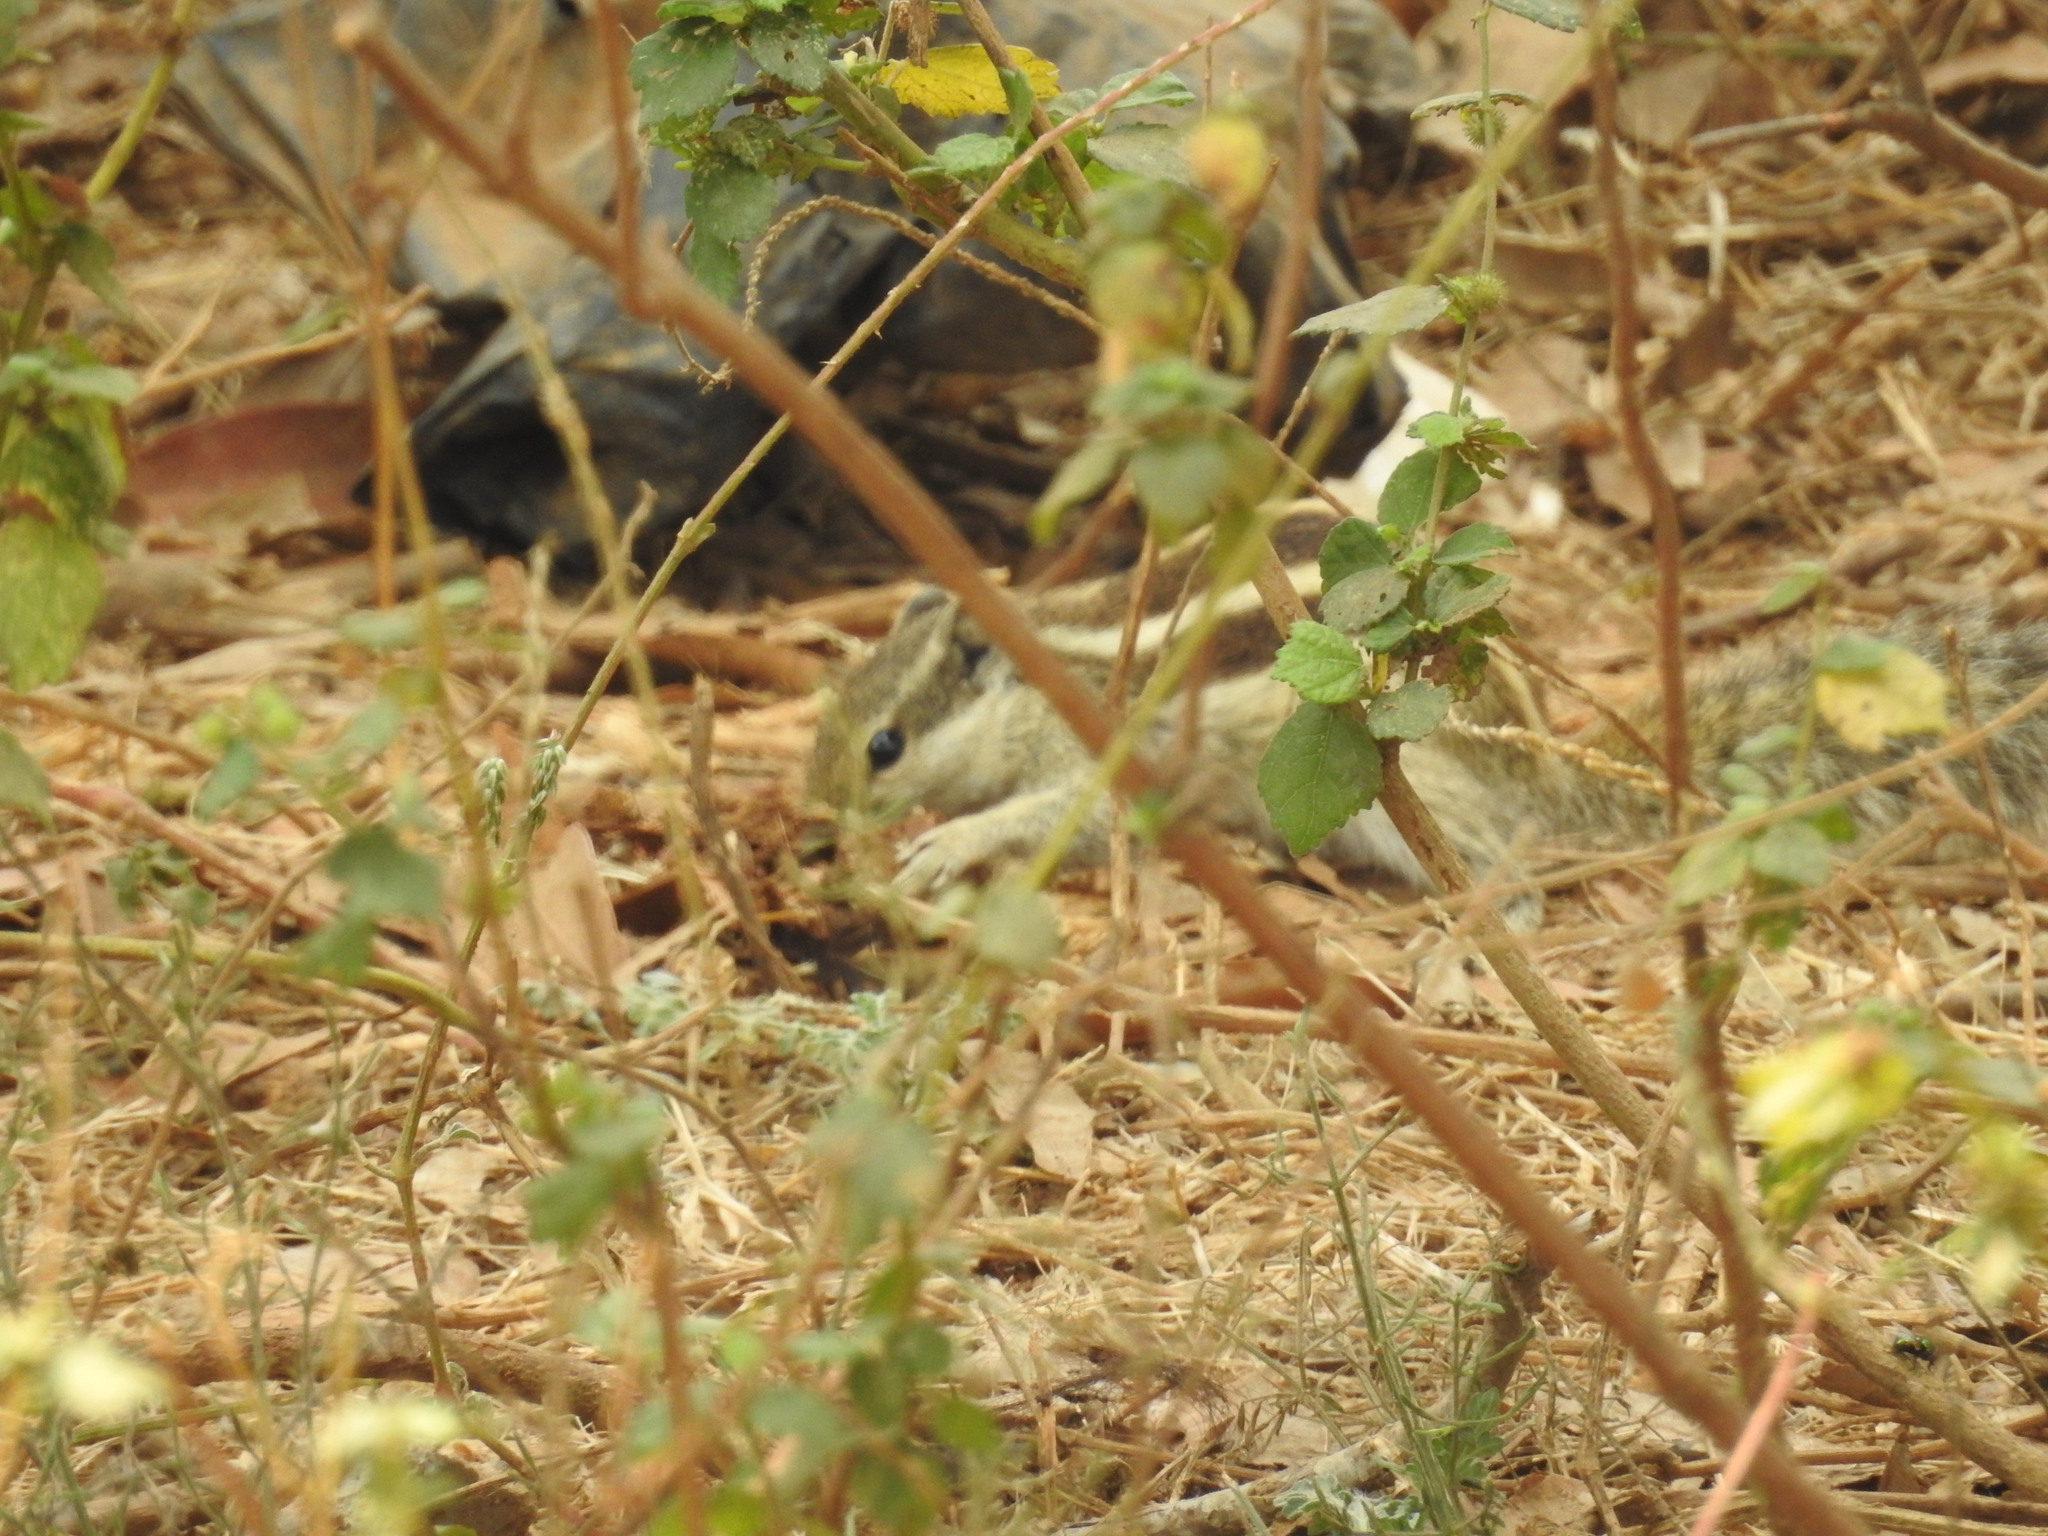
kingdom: Animalia
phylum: Chordata
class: Mammalia
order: Rodentia
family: Sciuridae
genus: Funambulus
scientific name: Funambulus pennantii
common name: Northern palm squirrel
